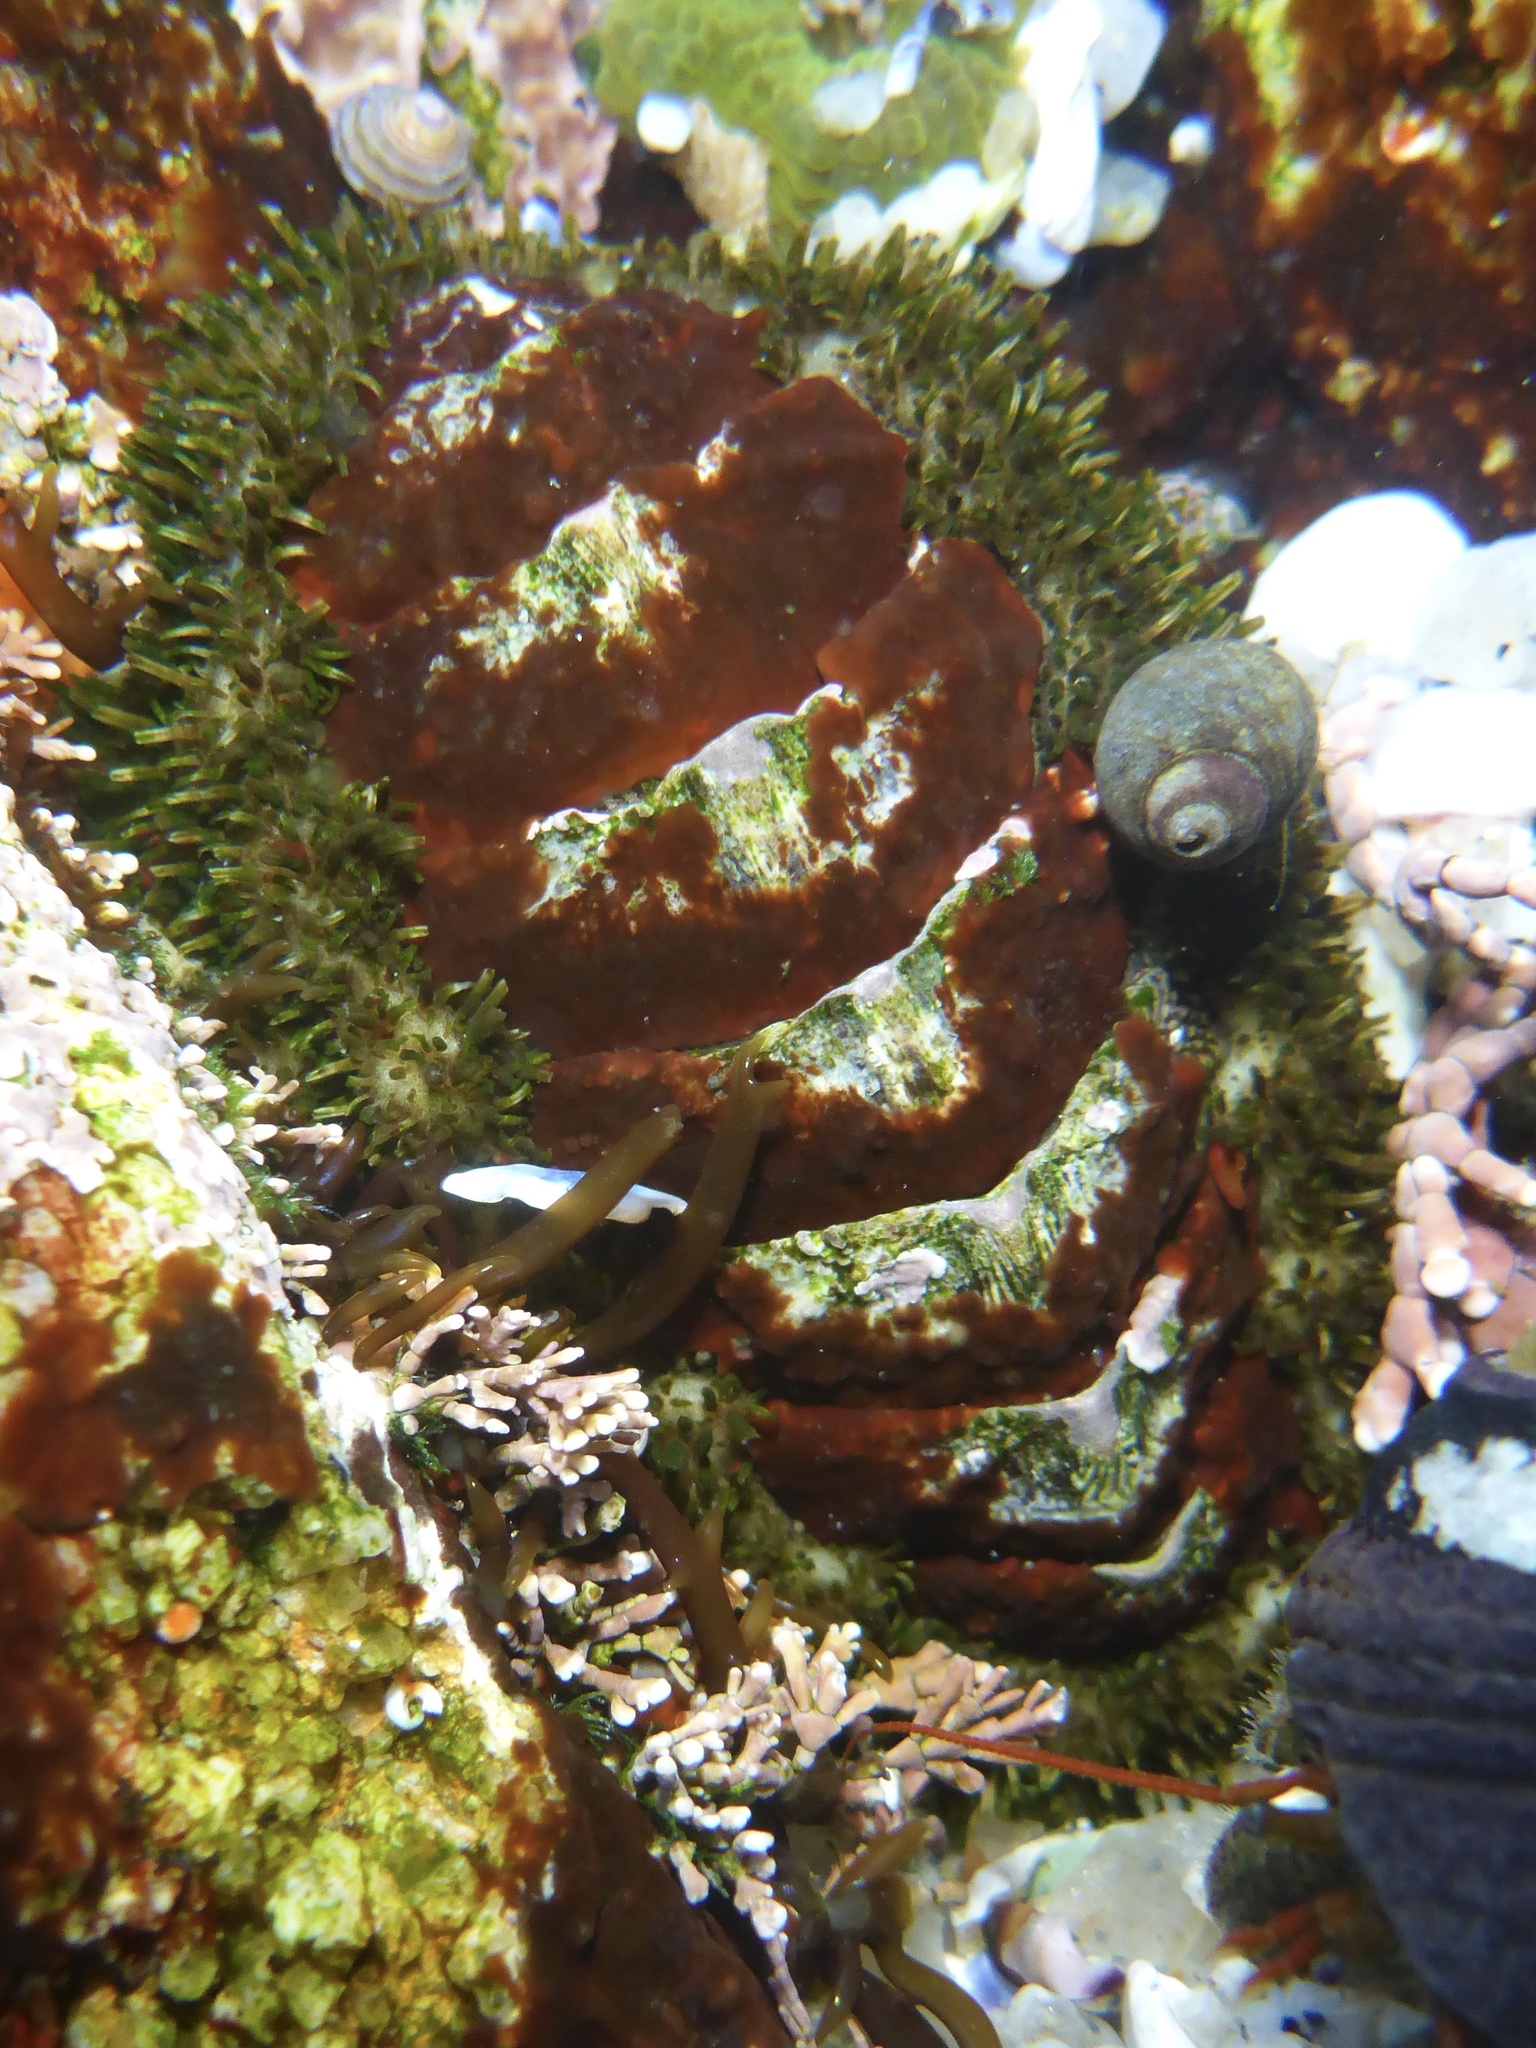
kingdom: Animalia
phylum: Mollusca
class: Polyplacophora
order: Chitonida
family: Mopaliidae
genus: Mopalia
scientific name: Mopalia muscosa
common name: Mossy chiton
